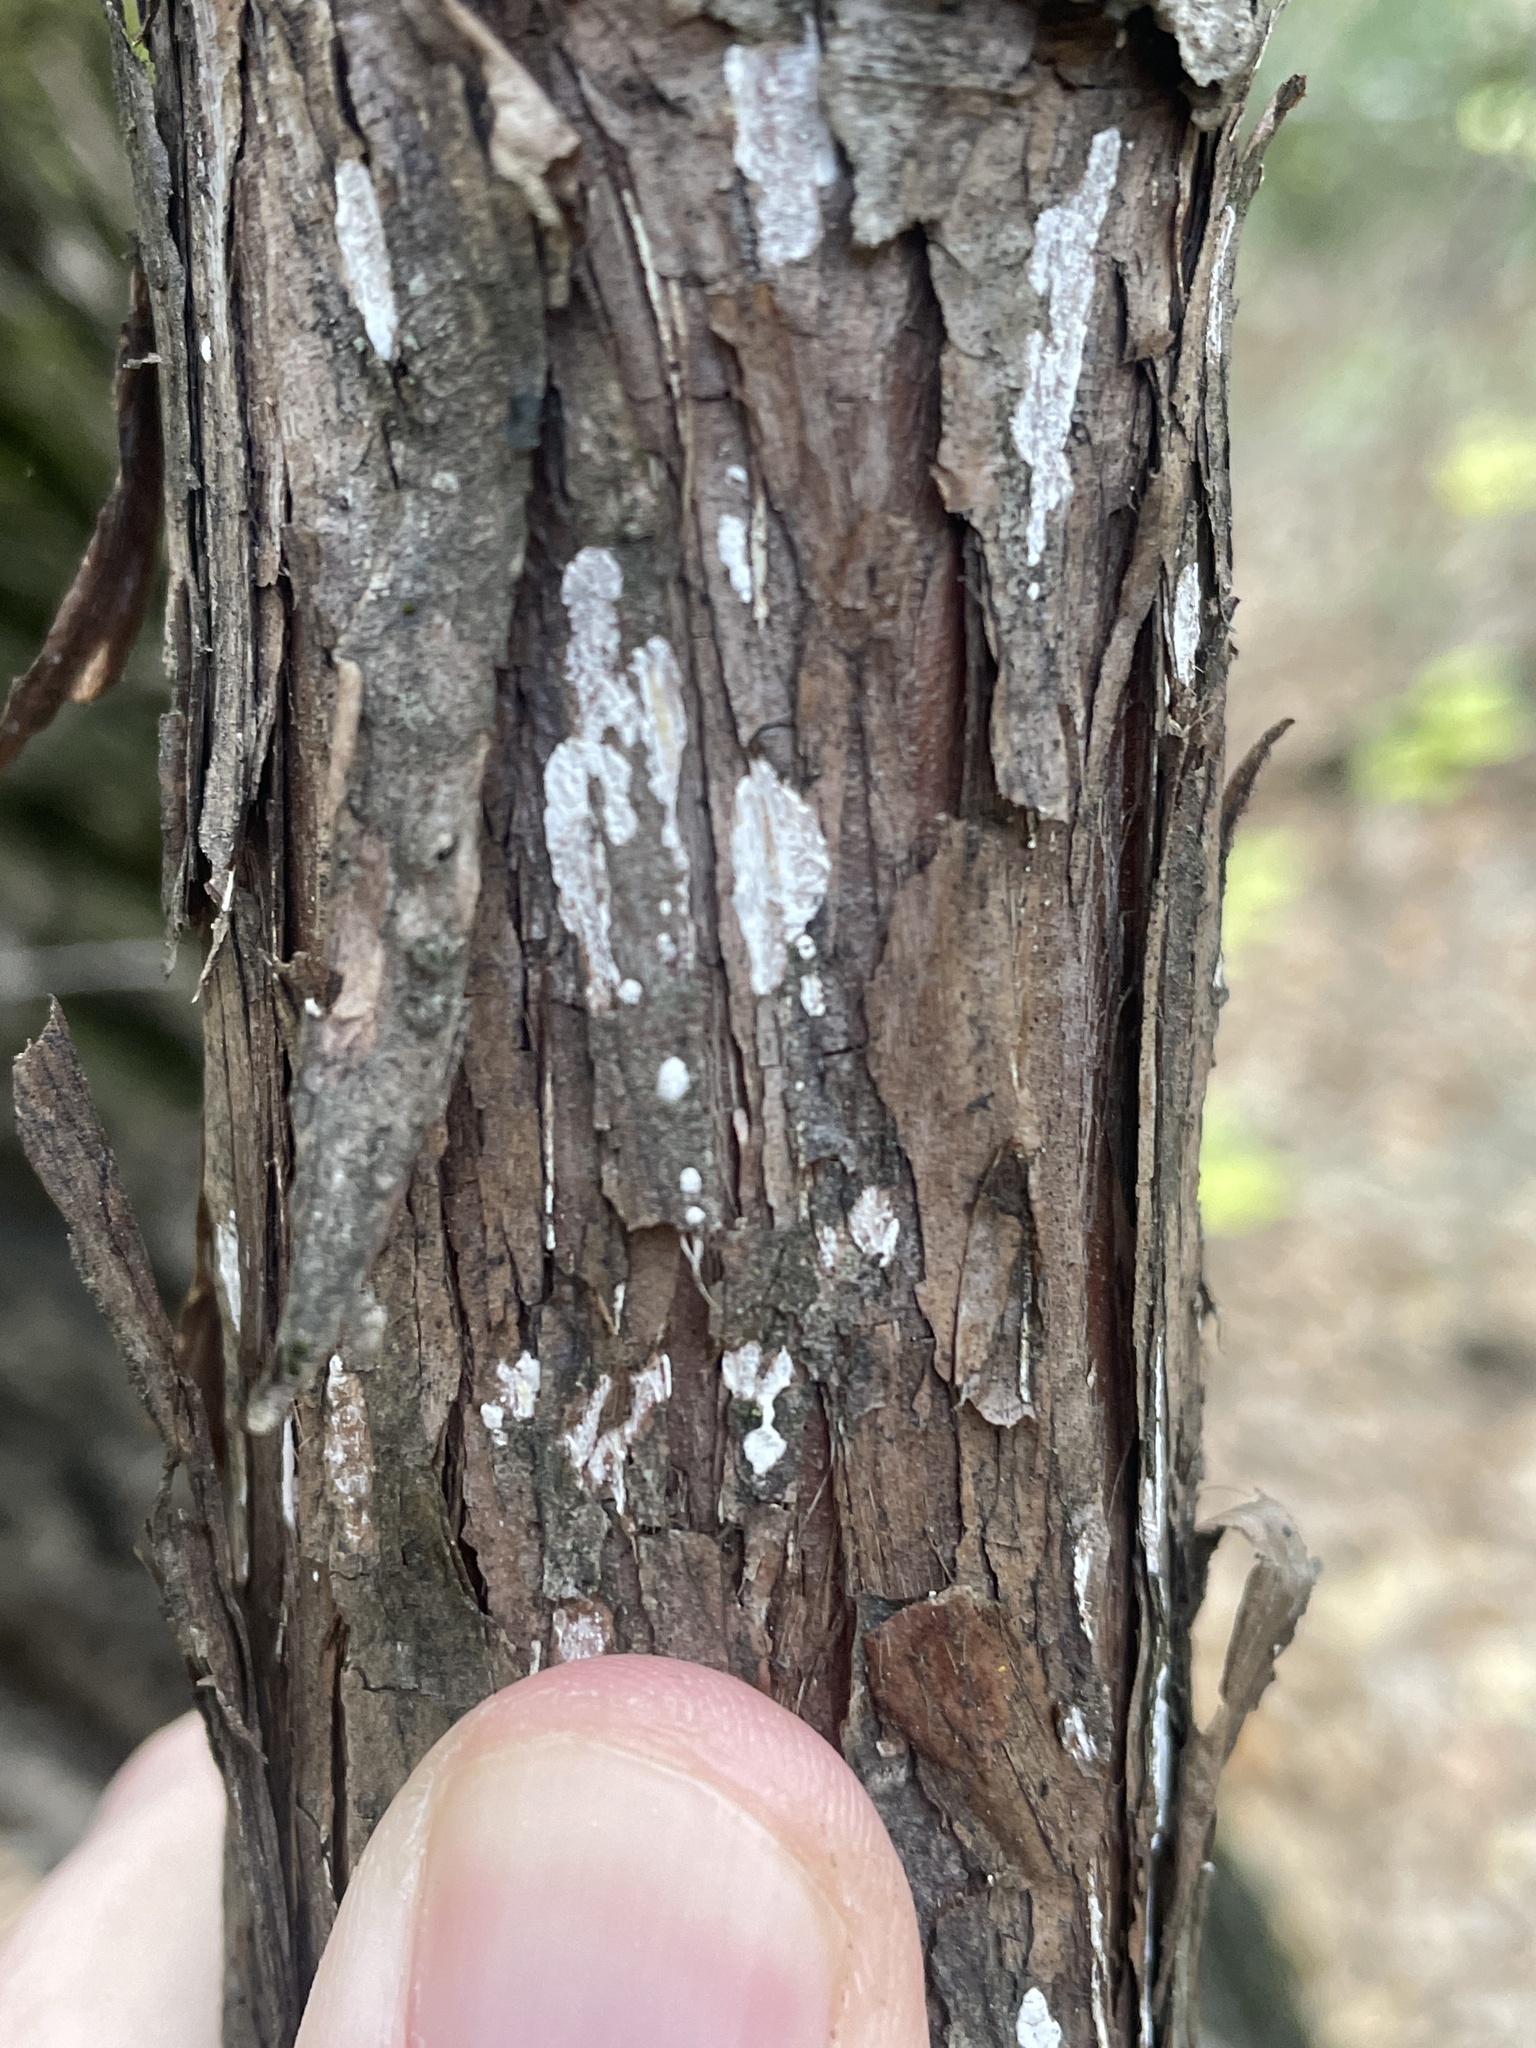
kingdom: Fungi
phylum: Basidiomycota
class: Agaricomycetes
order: Agaricales
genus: Dendrothele
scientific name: Dendrothele nivosa
